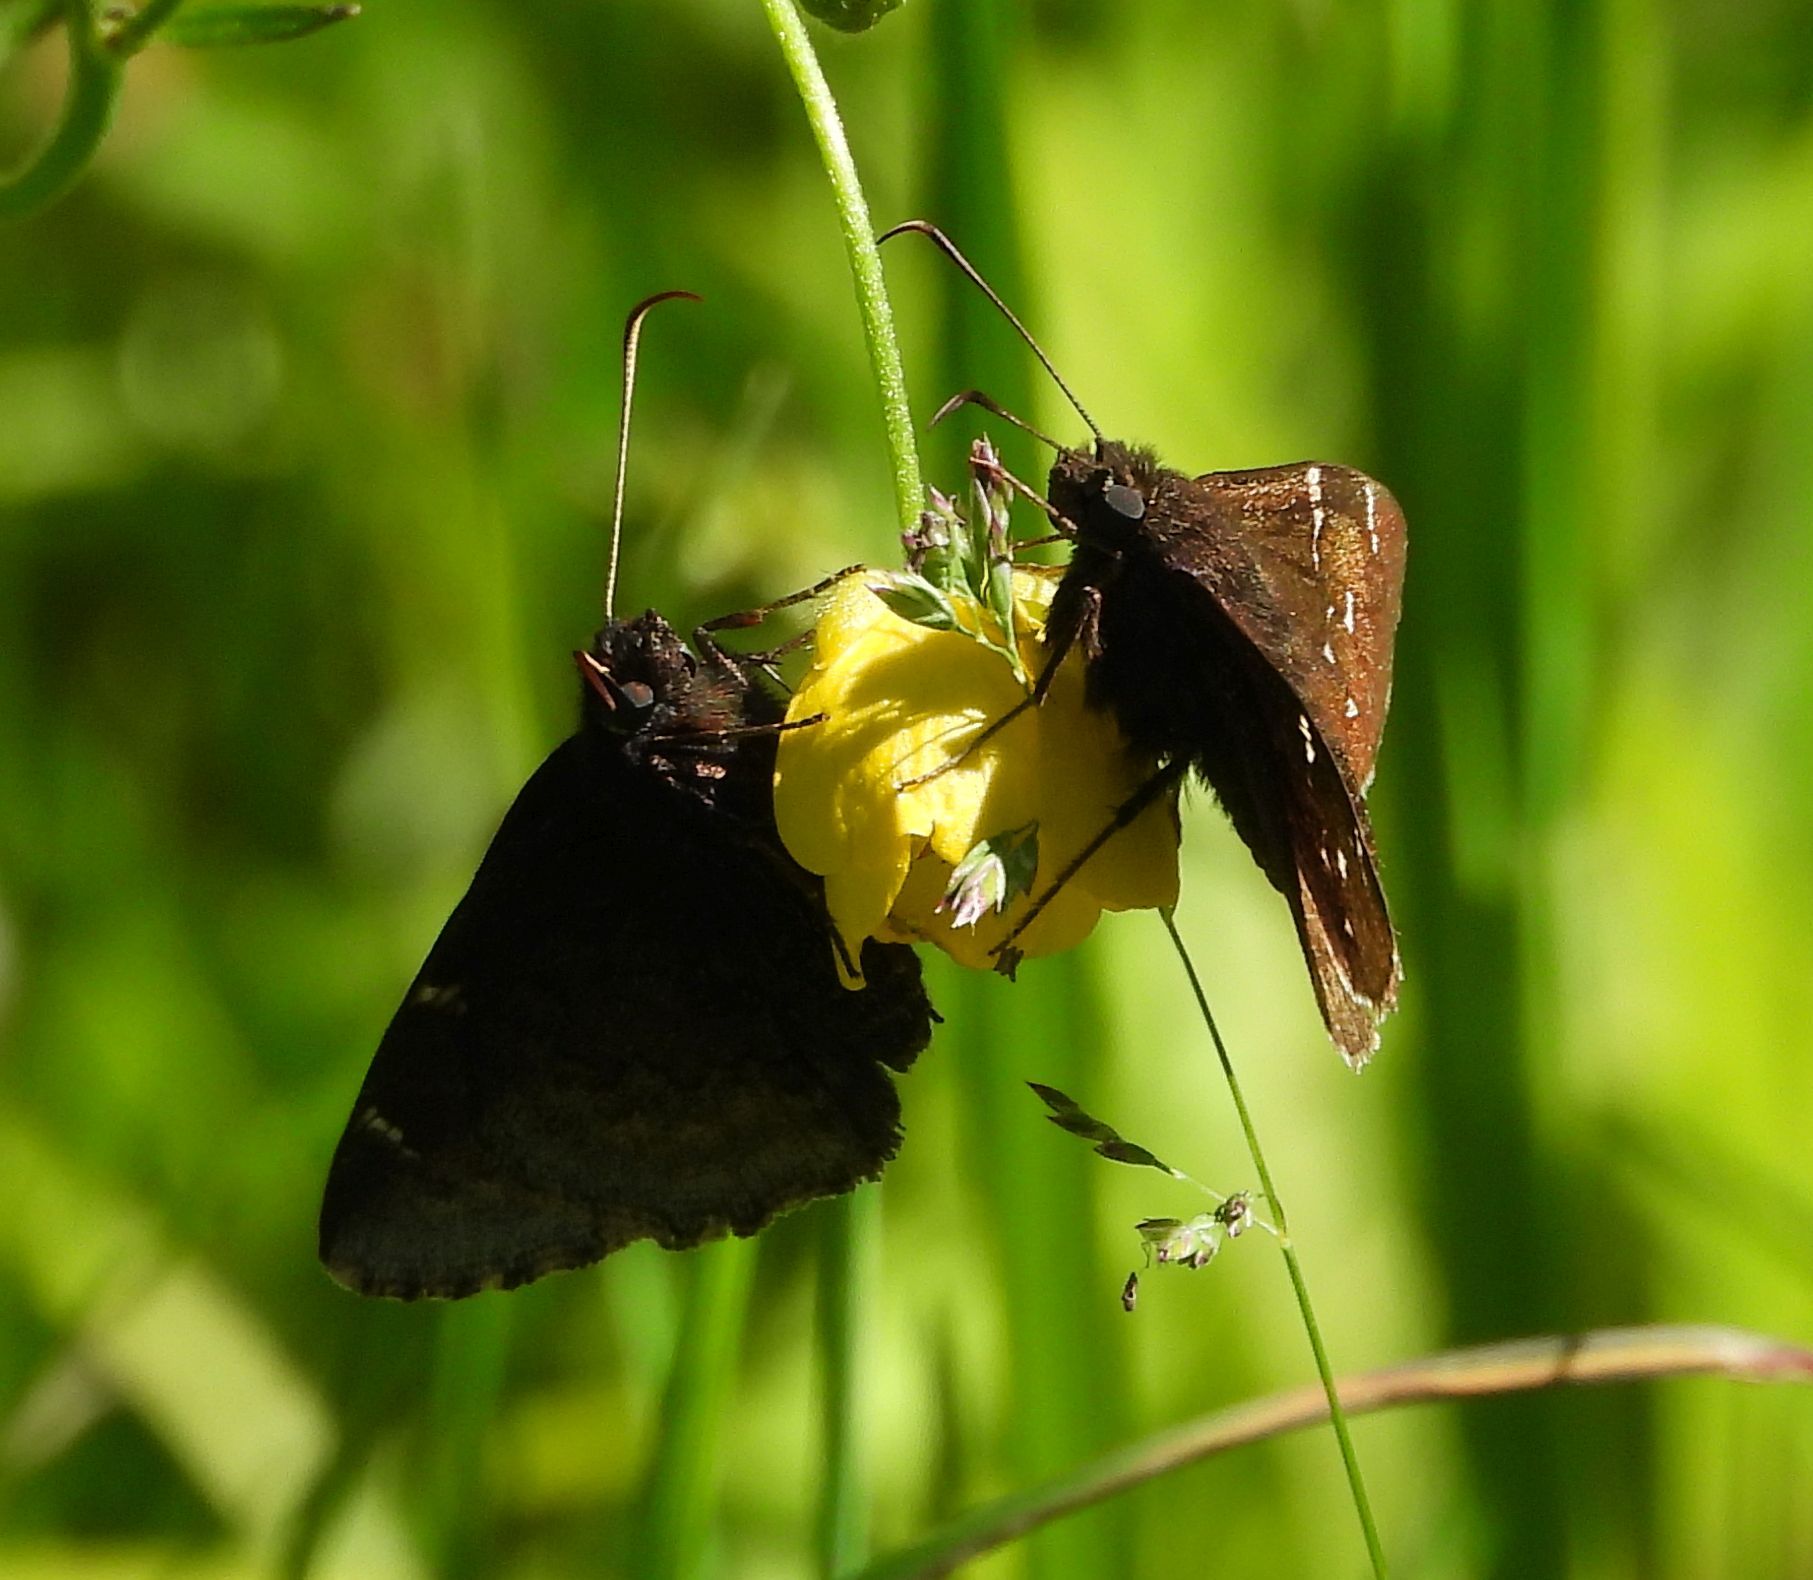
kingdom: Animalia
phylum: Arthropoda
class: Insecta
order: Lepidoptera
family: Hesperiidae
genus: Thorybes
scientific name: Thorybes pylades
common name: Northern cloudywing
